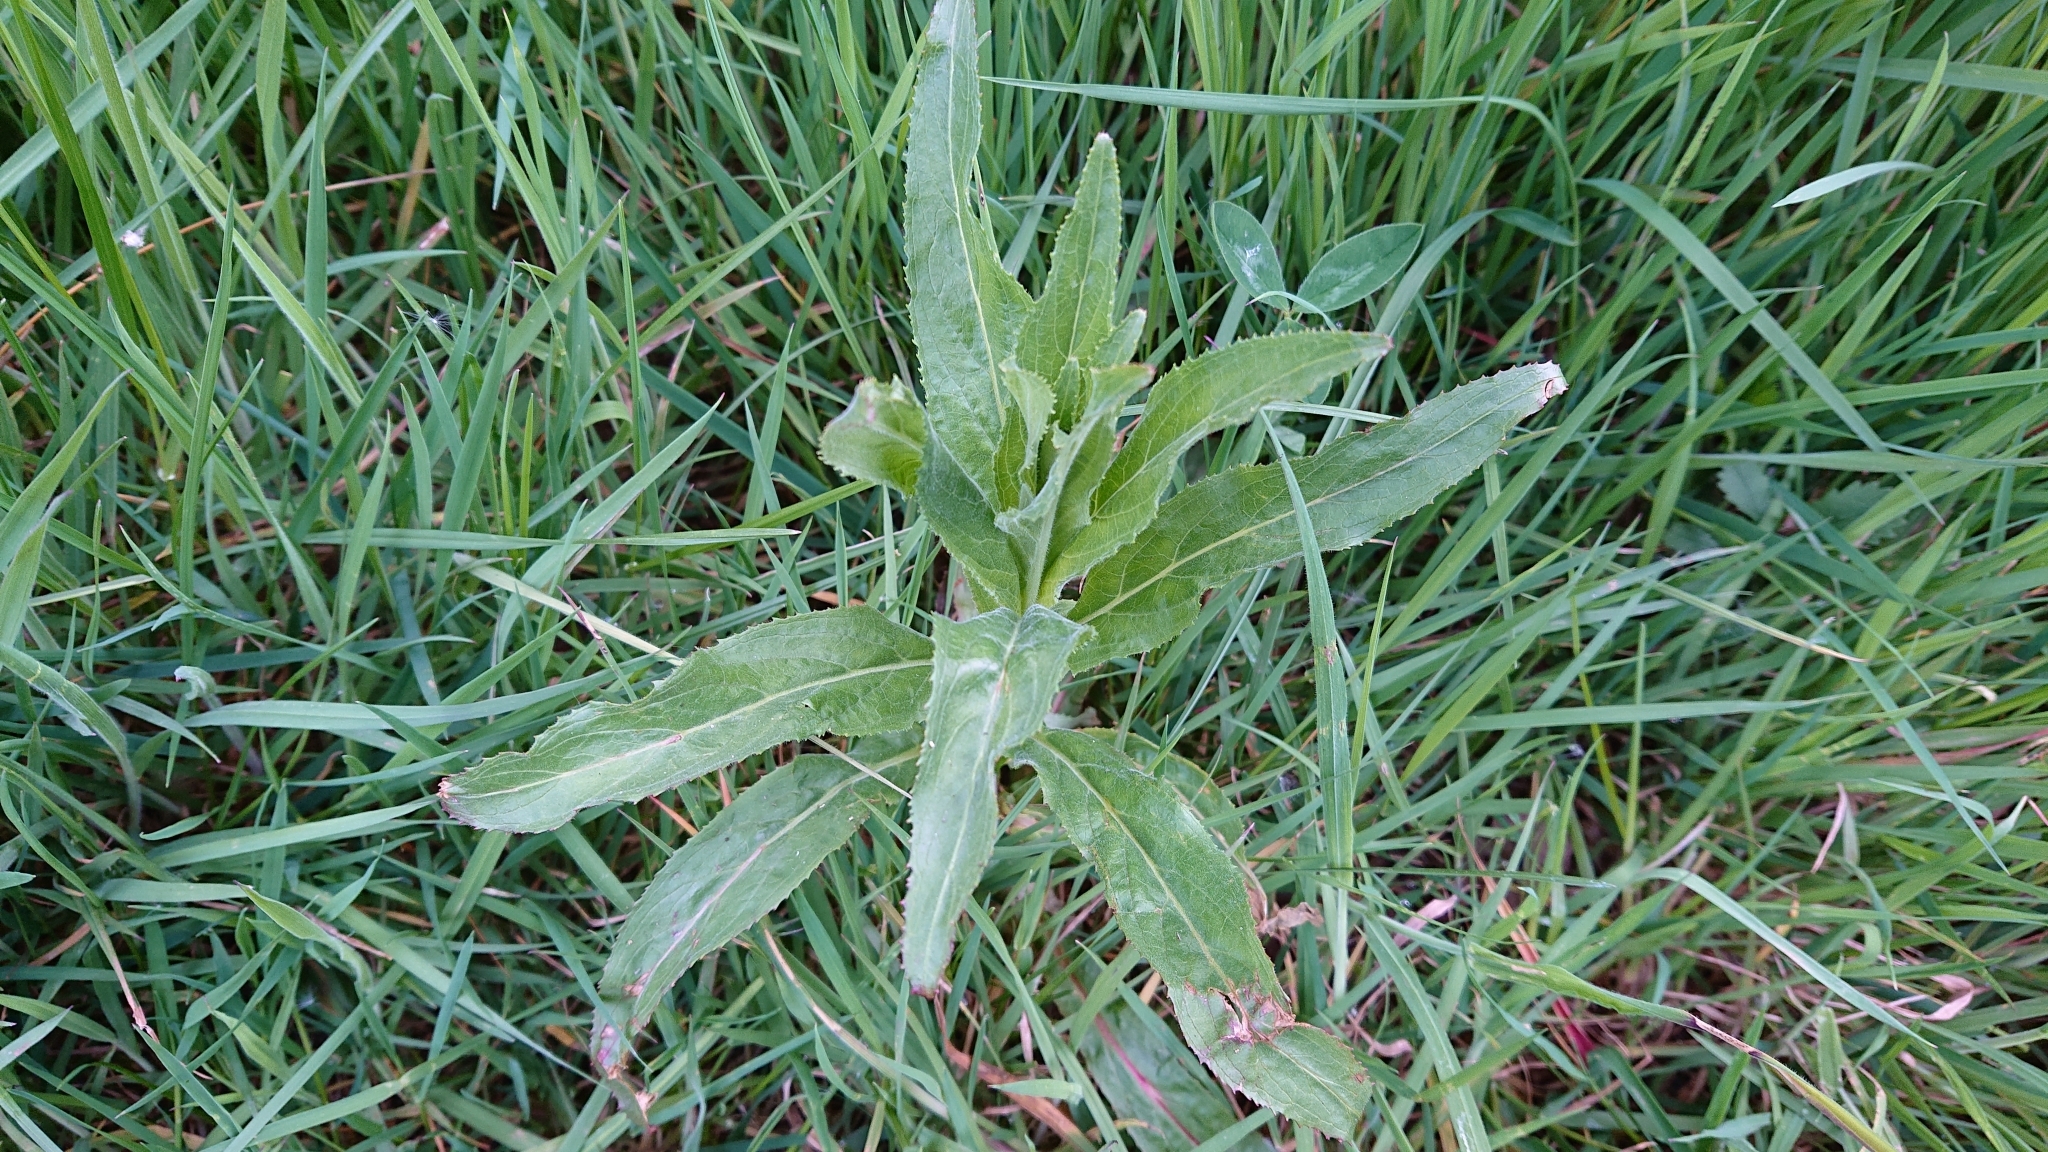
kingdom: Plantae
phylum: Tracheophyta
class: Magnoliopsida
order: Myrtales
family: Onagraceae
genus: Chamaenerion
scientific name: Chamaenerion angustifolium
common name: Fireweed
